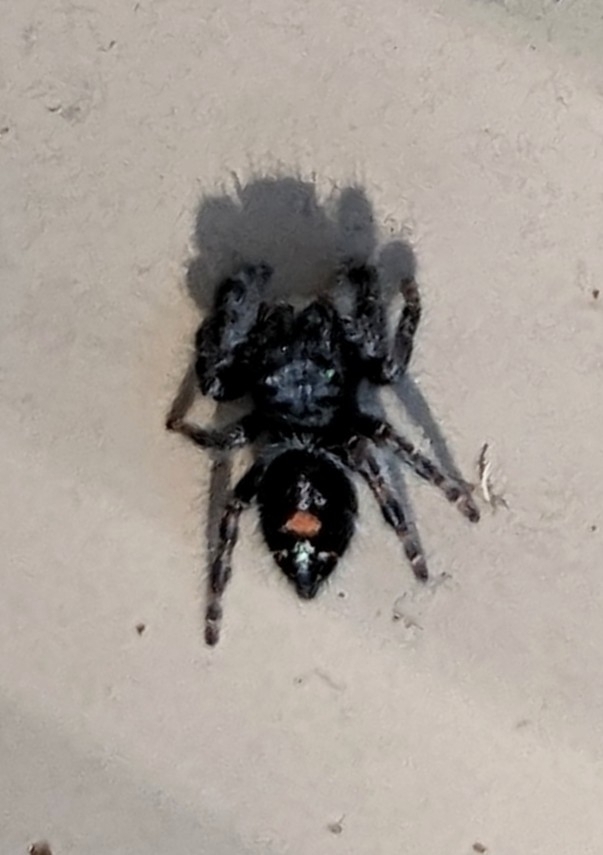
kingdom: Animalia
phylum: Arthropoda
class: Arachnida
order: Araneae
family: Salticidae
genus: Phidippus
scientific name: Phidippus audax
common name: Bold jumper
